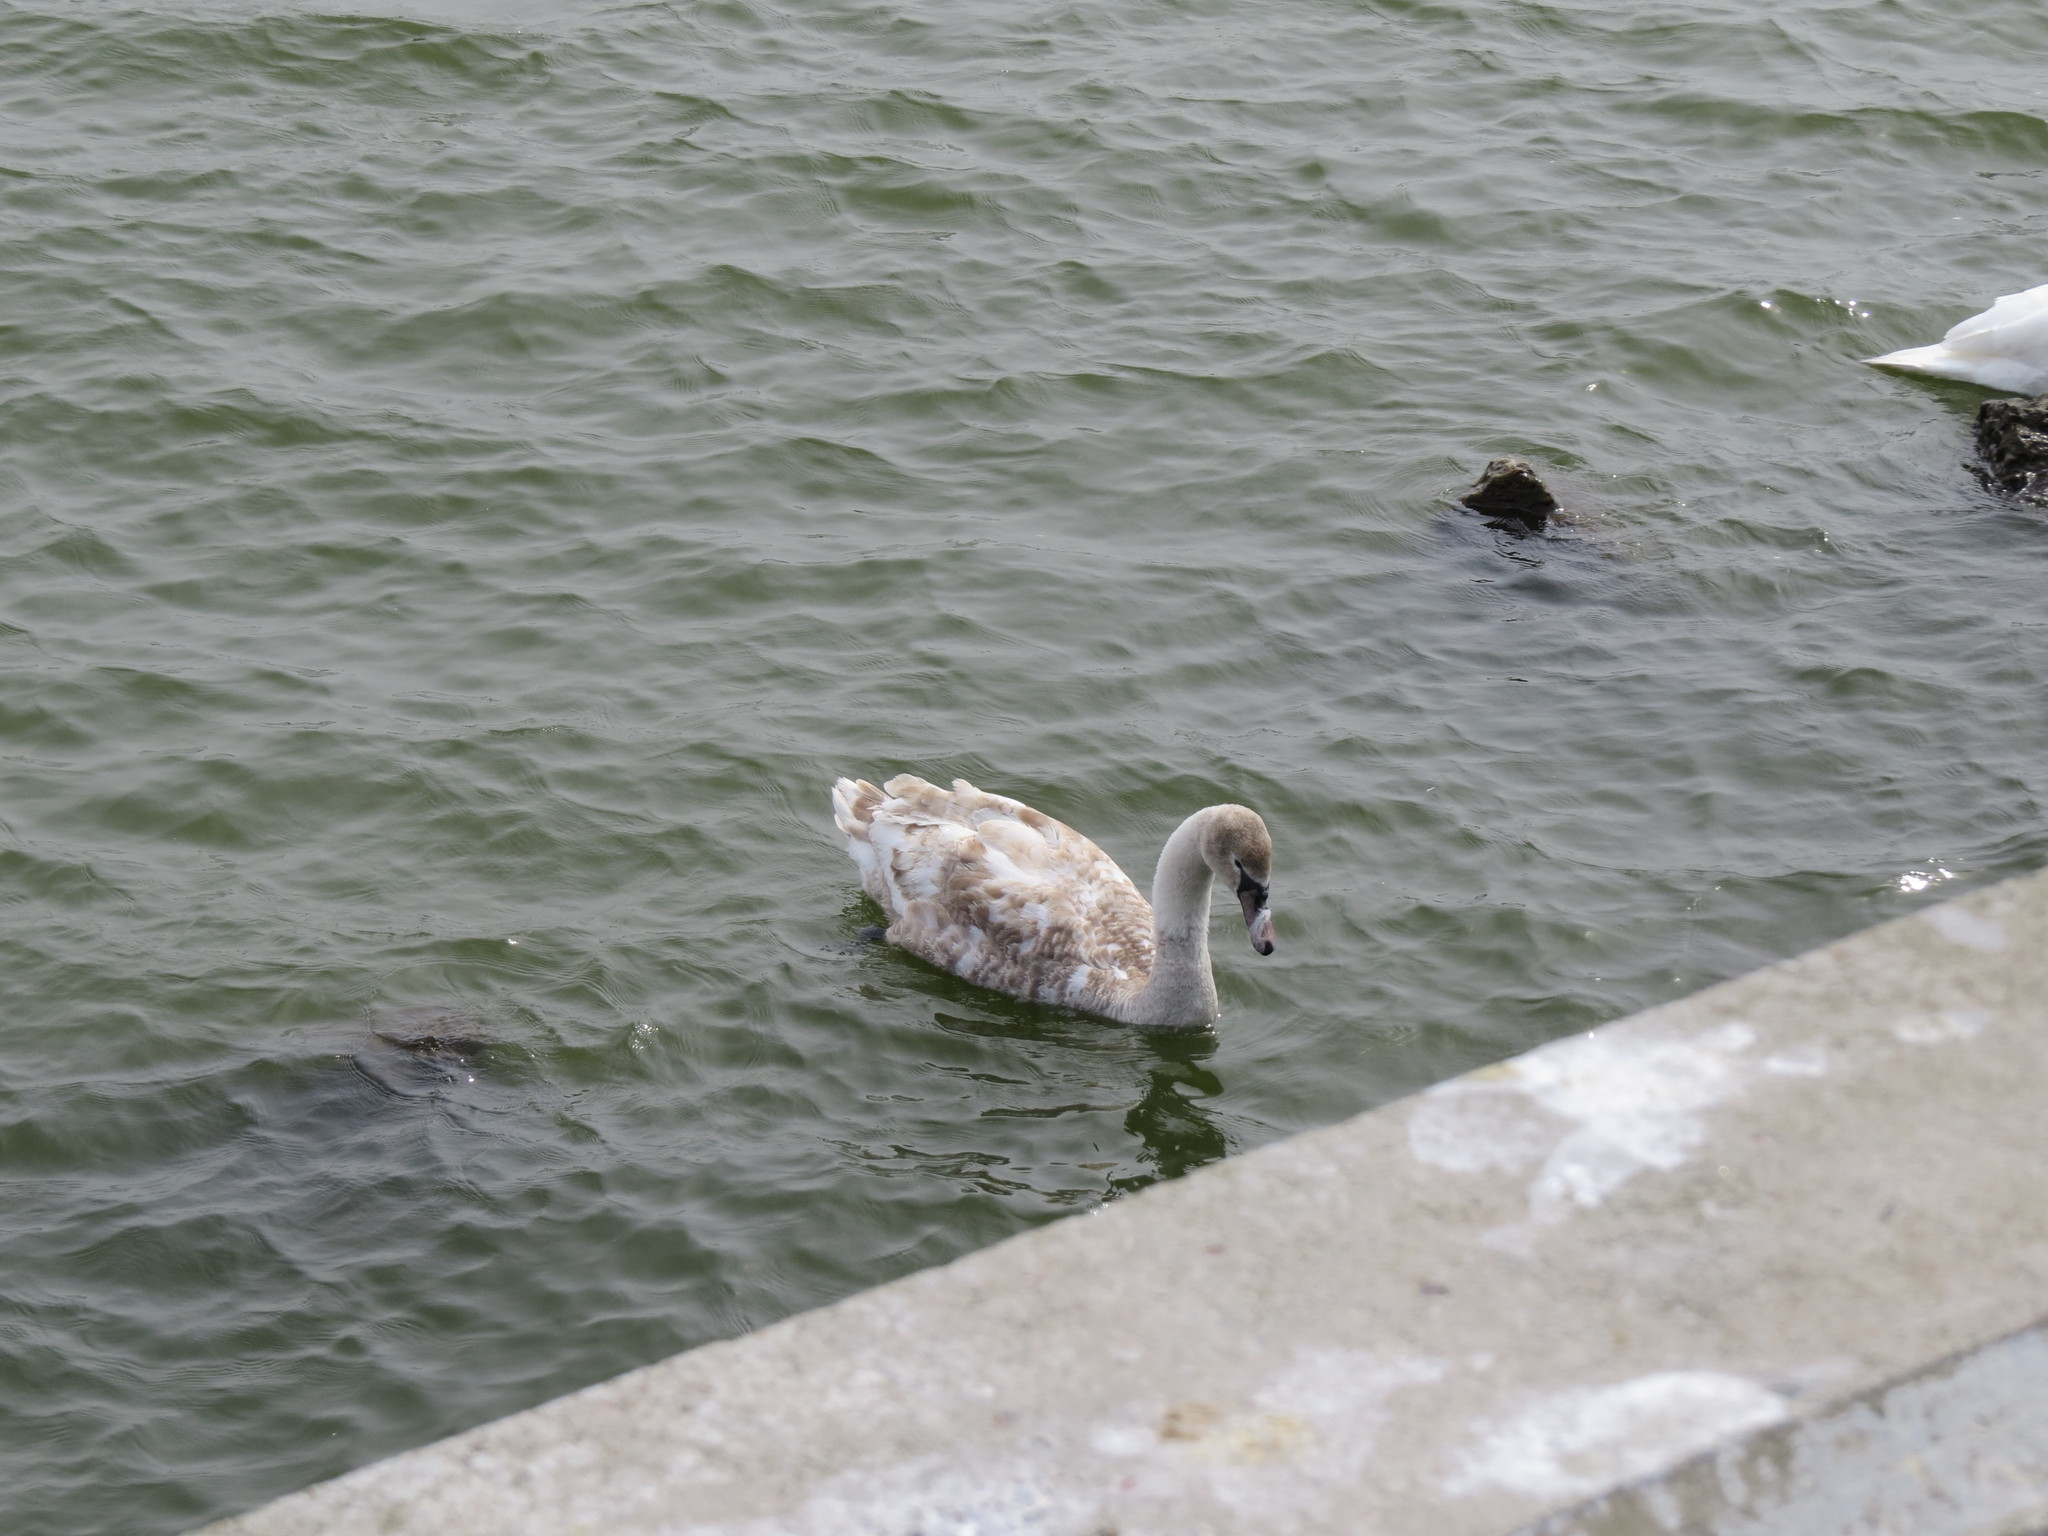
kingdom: Animalia
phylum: Chordata
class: Aves
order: Anseriformes
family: Anatidae
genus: Cygnus
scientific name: Cygnus olor
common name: Mute swan
